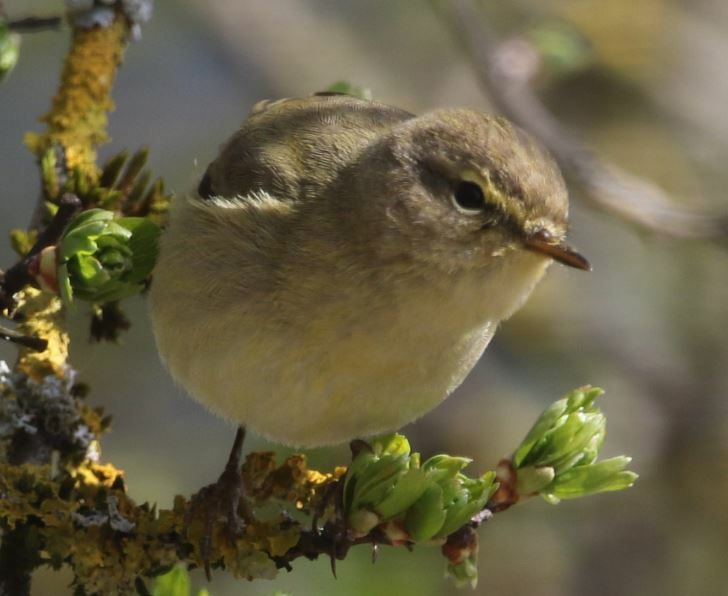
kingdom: Animalia
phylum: Chordata
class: Aves
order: Passeriformes
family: Phylloscopidae
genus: Phylloscopus
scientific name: Phylloscopus collybita
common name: Common chiffchaff
